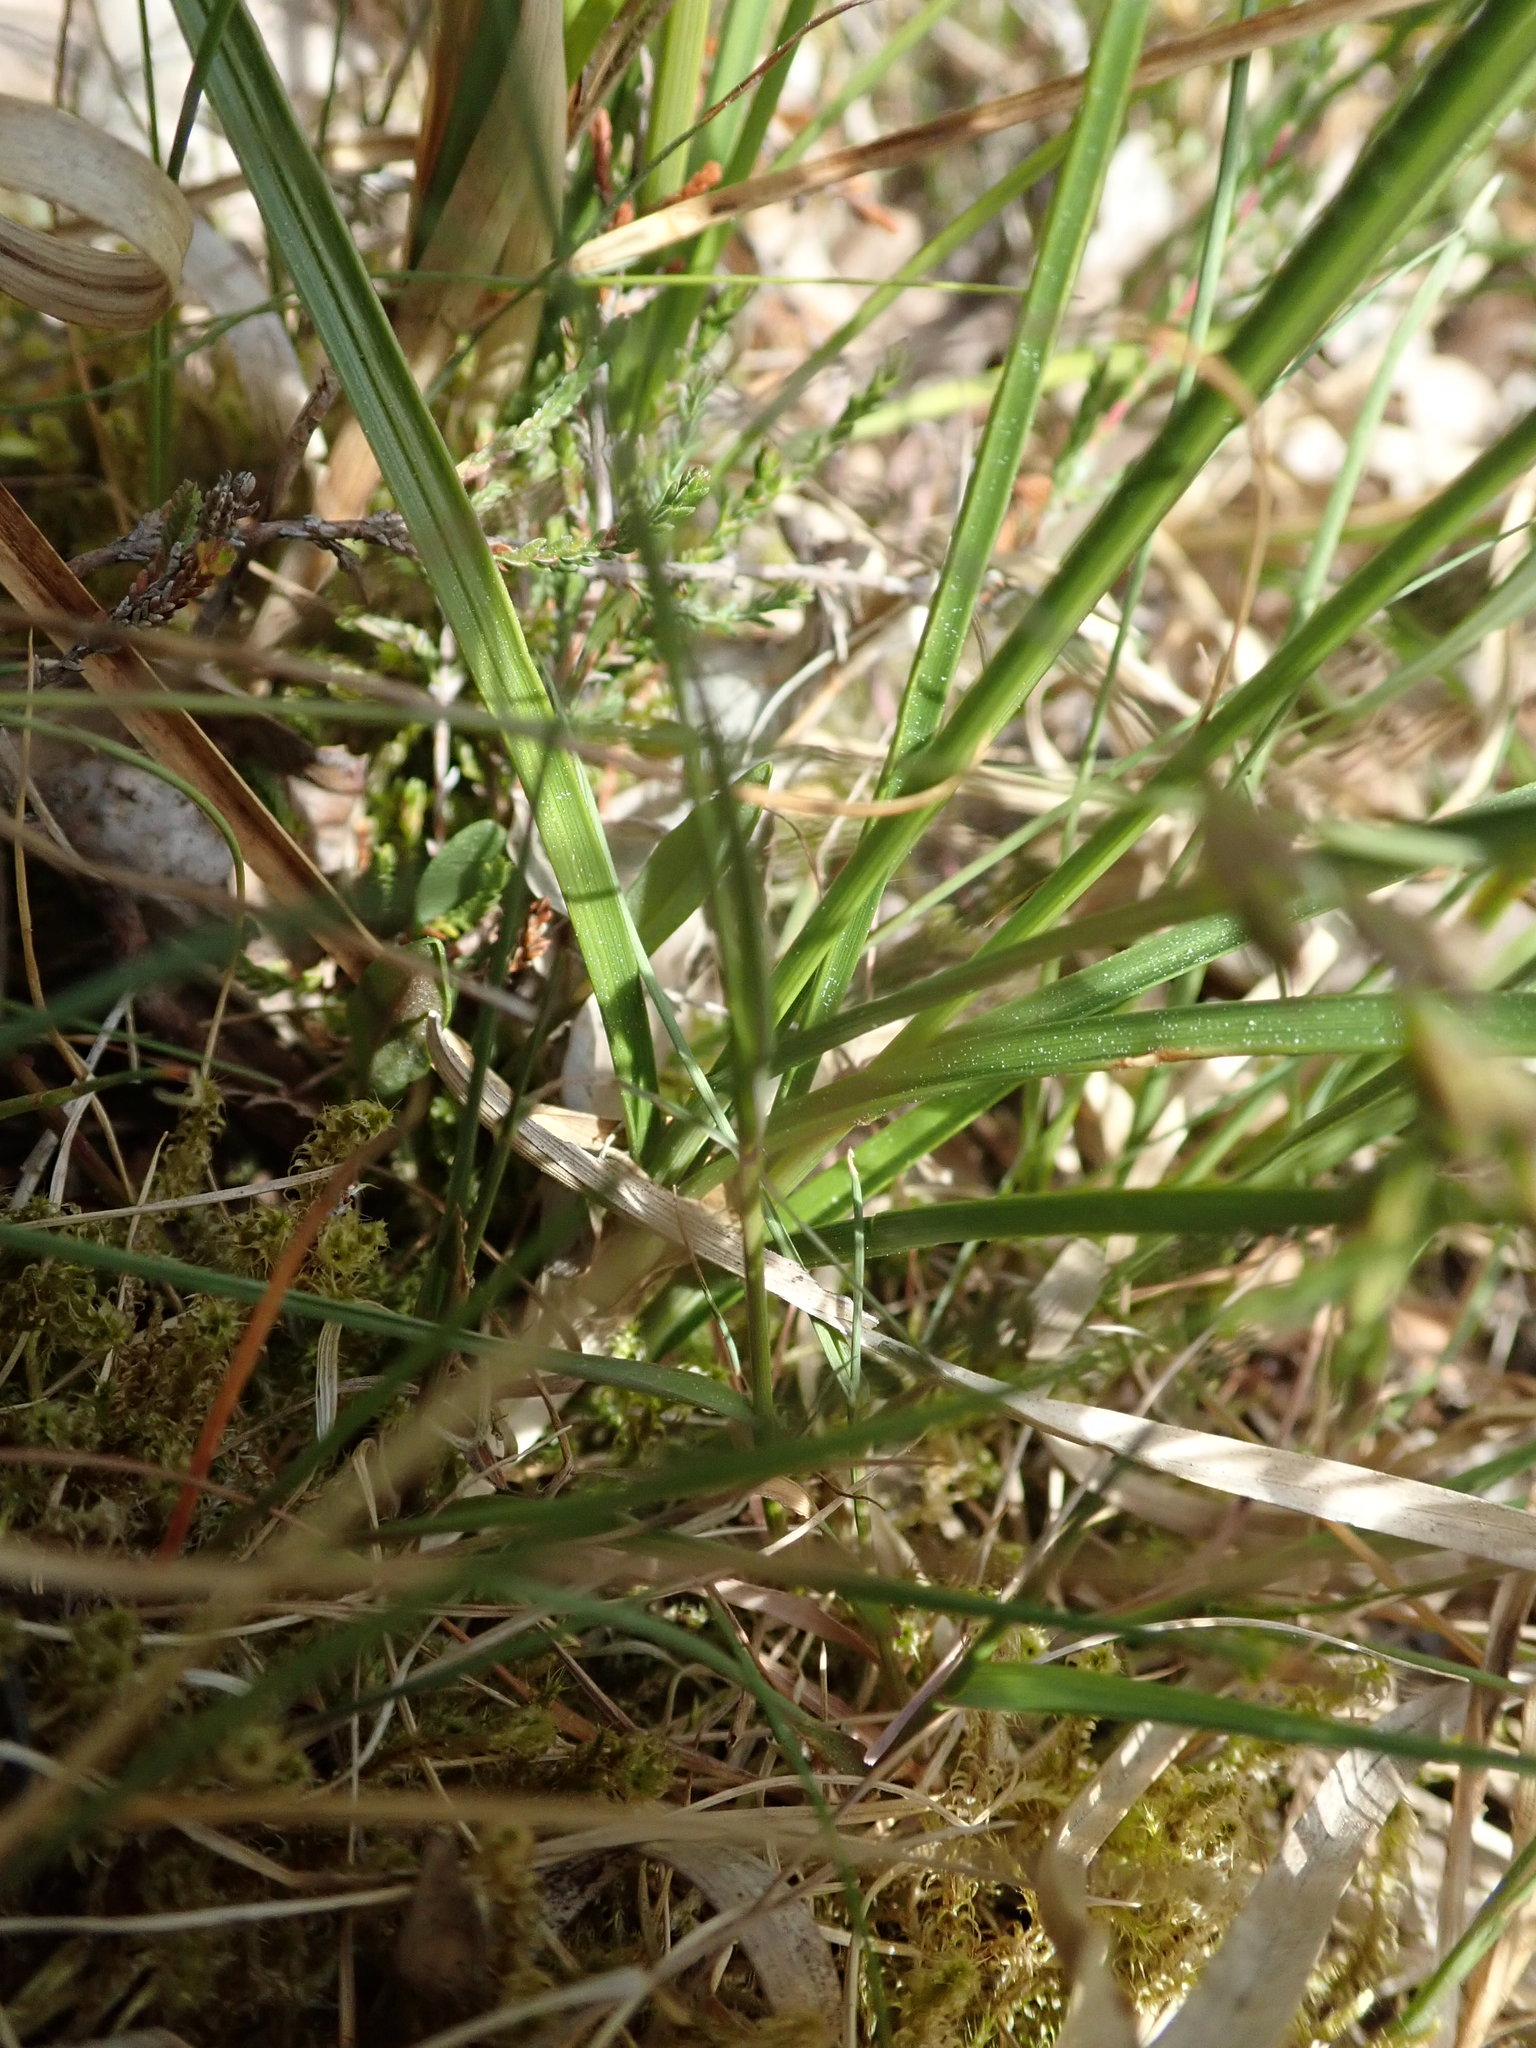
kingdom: Plantae
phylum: Tracheophyta
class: Liliopsida
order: Poales
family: Cyperaceae
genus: Carex
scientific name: Carex arenaria
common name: Sand sedge
